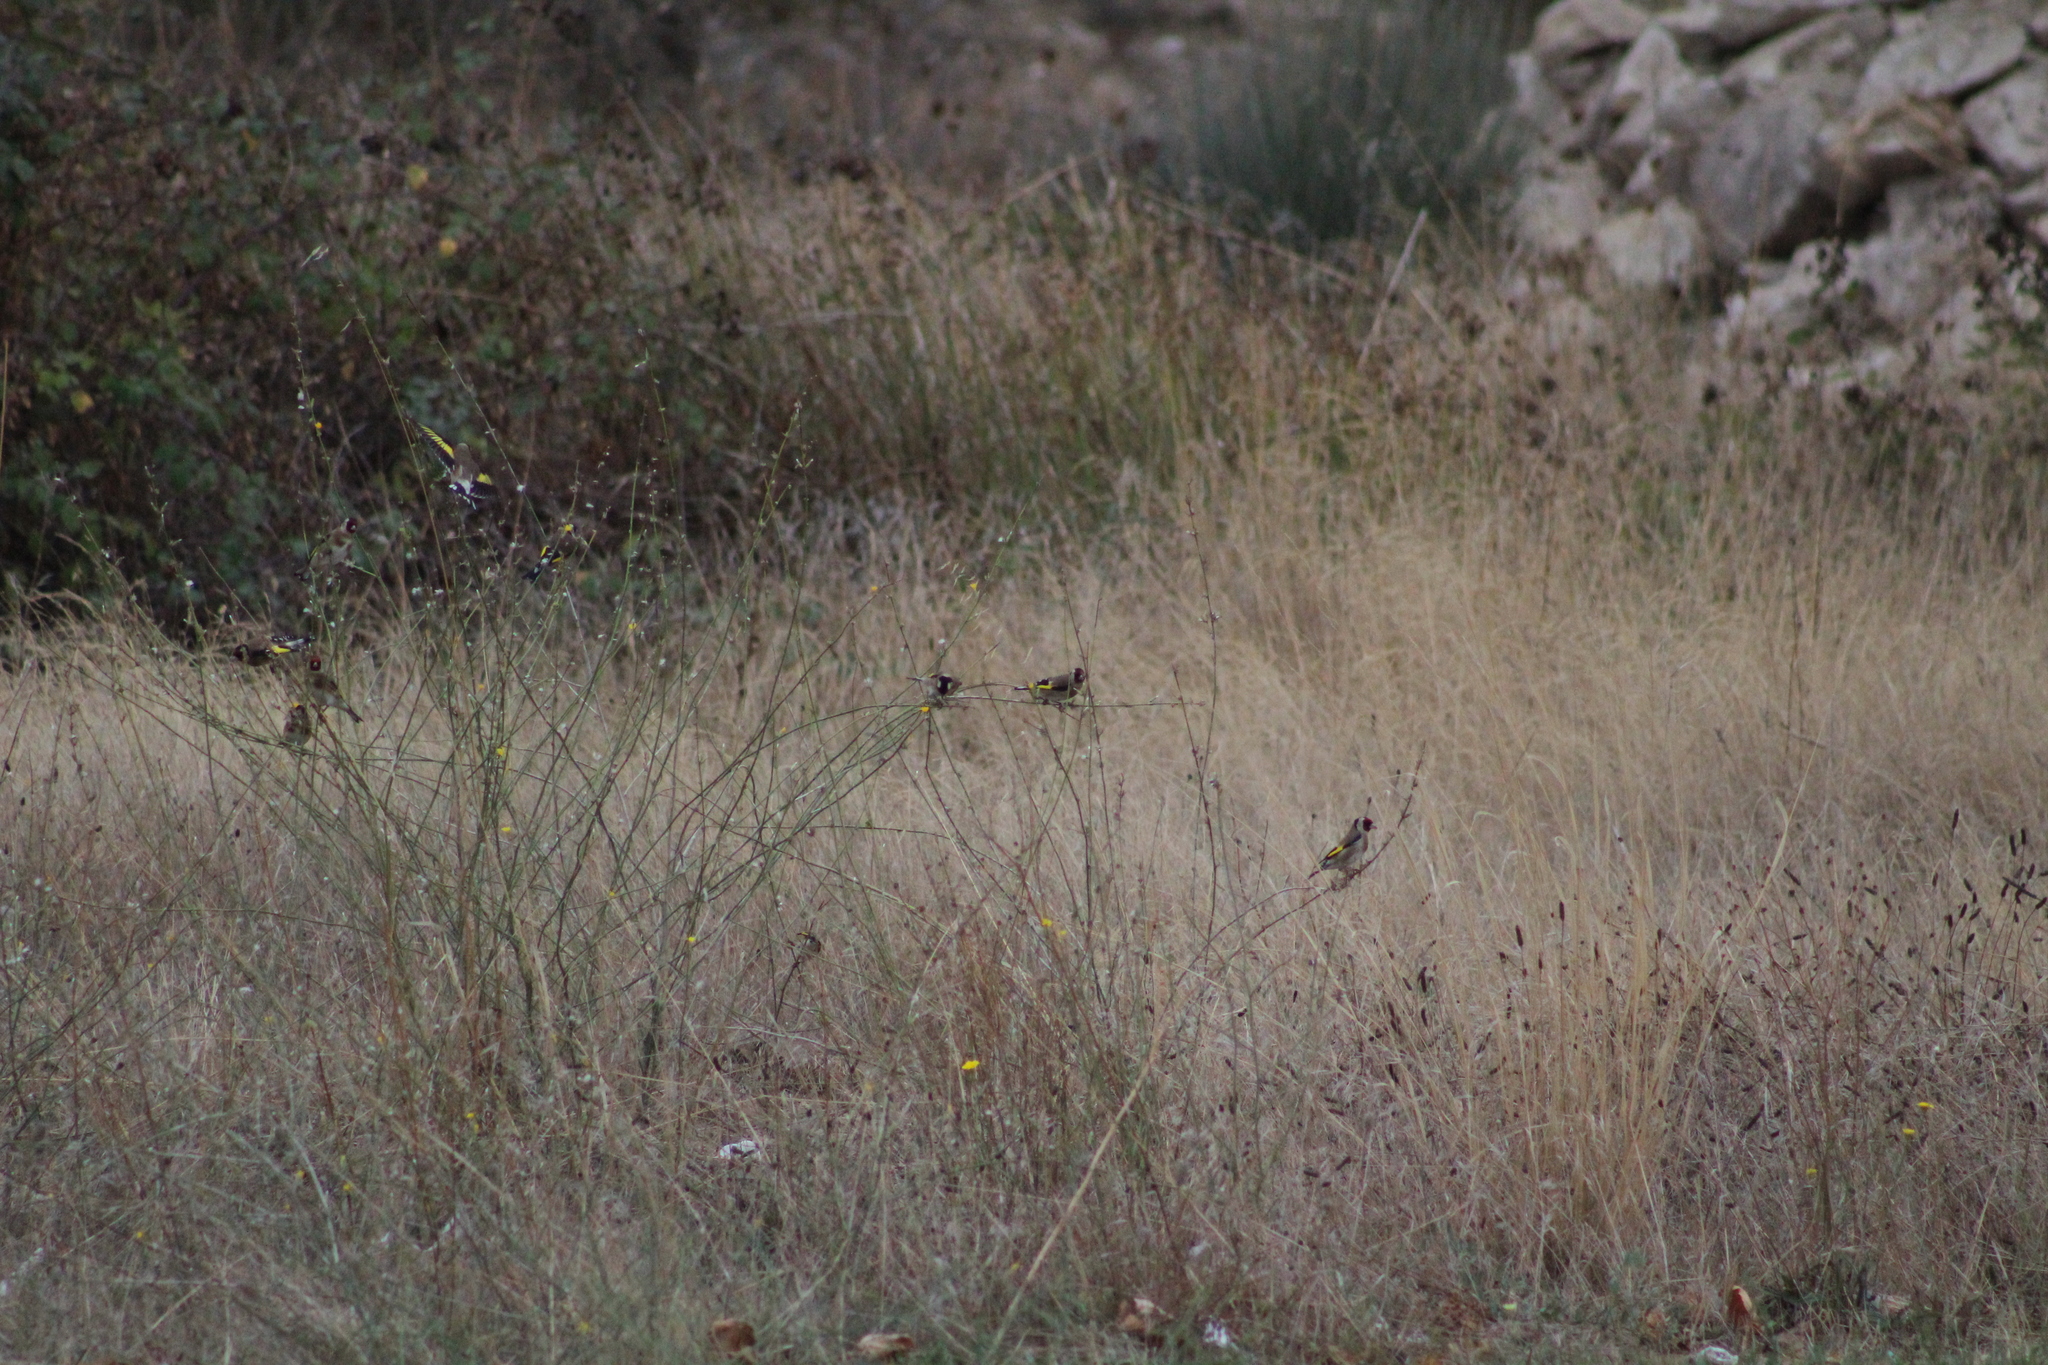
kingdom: Animalia
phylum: Chordata
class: Aves
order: Passeriformes
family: Fringillidae
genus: Carduelis
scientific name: Carduelis carduelis
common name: European goldfinch
